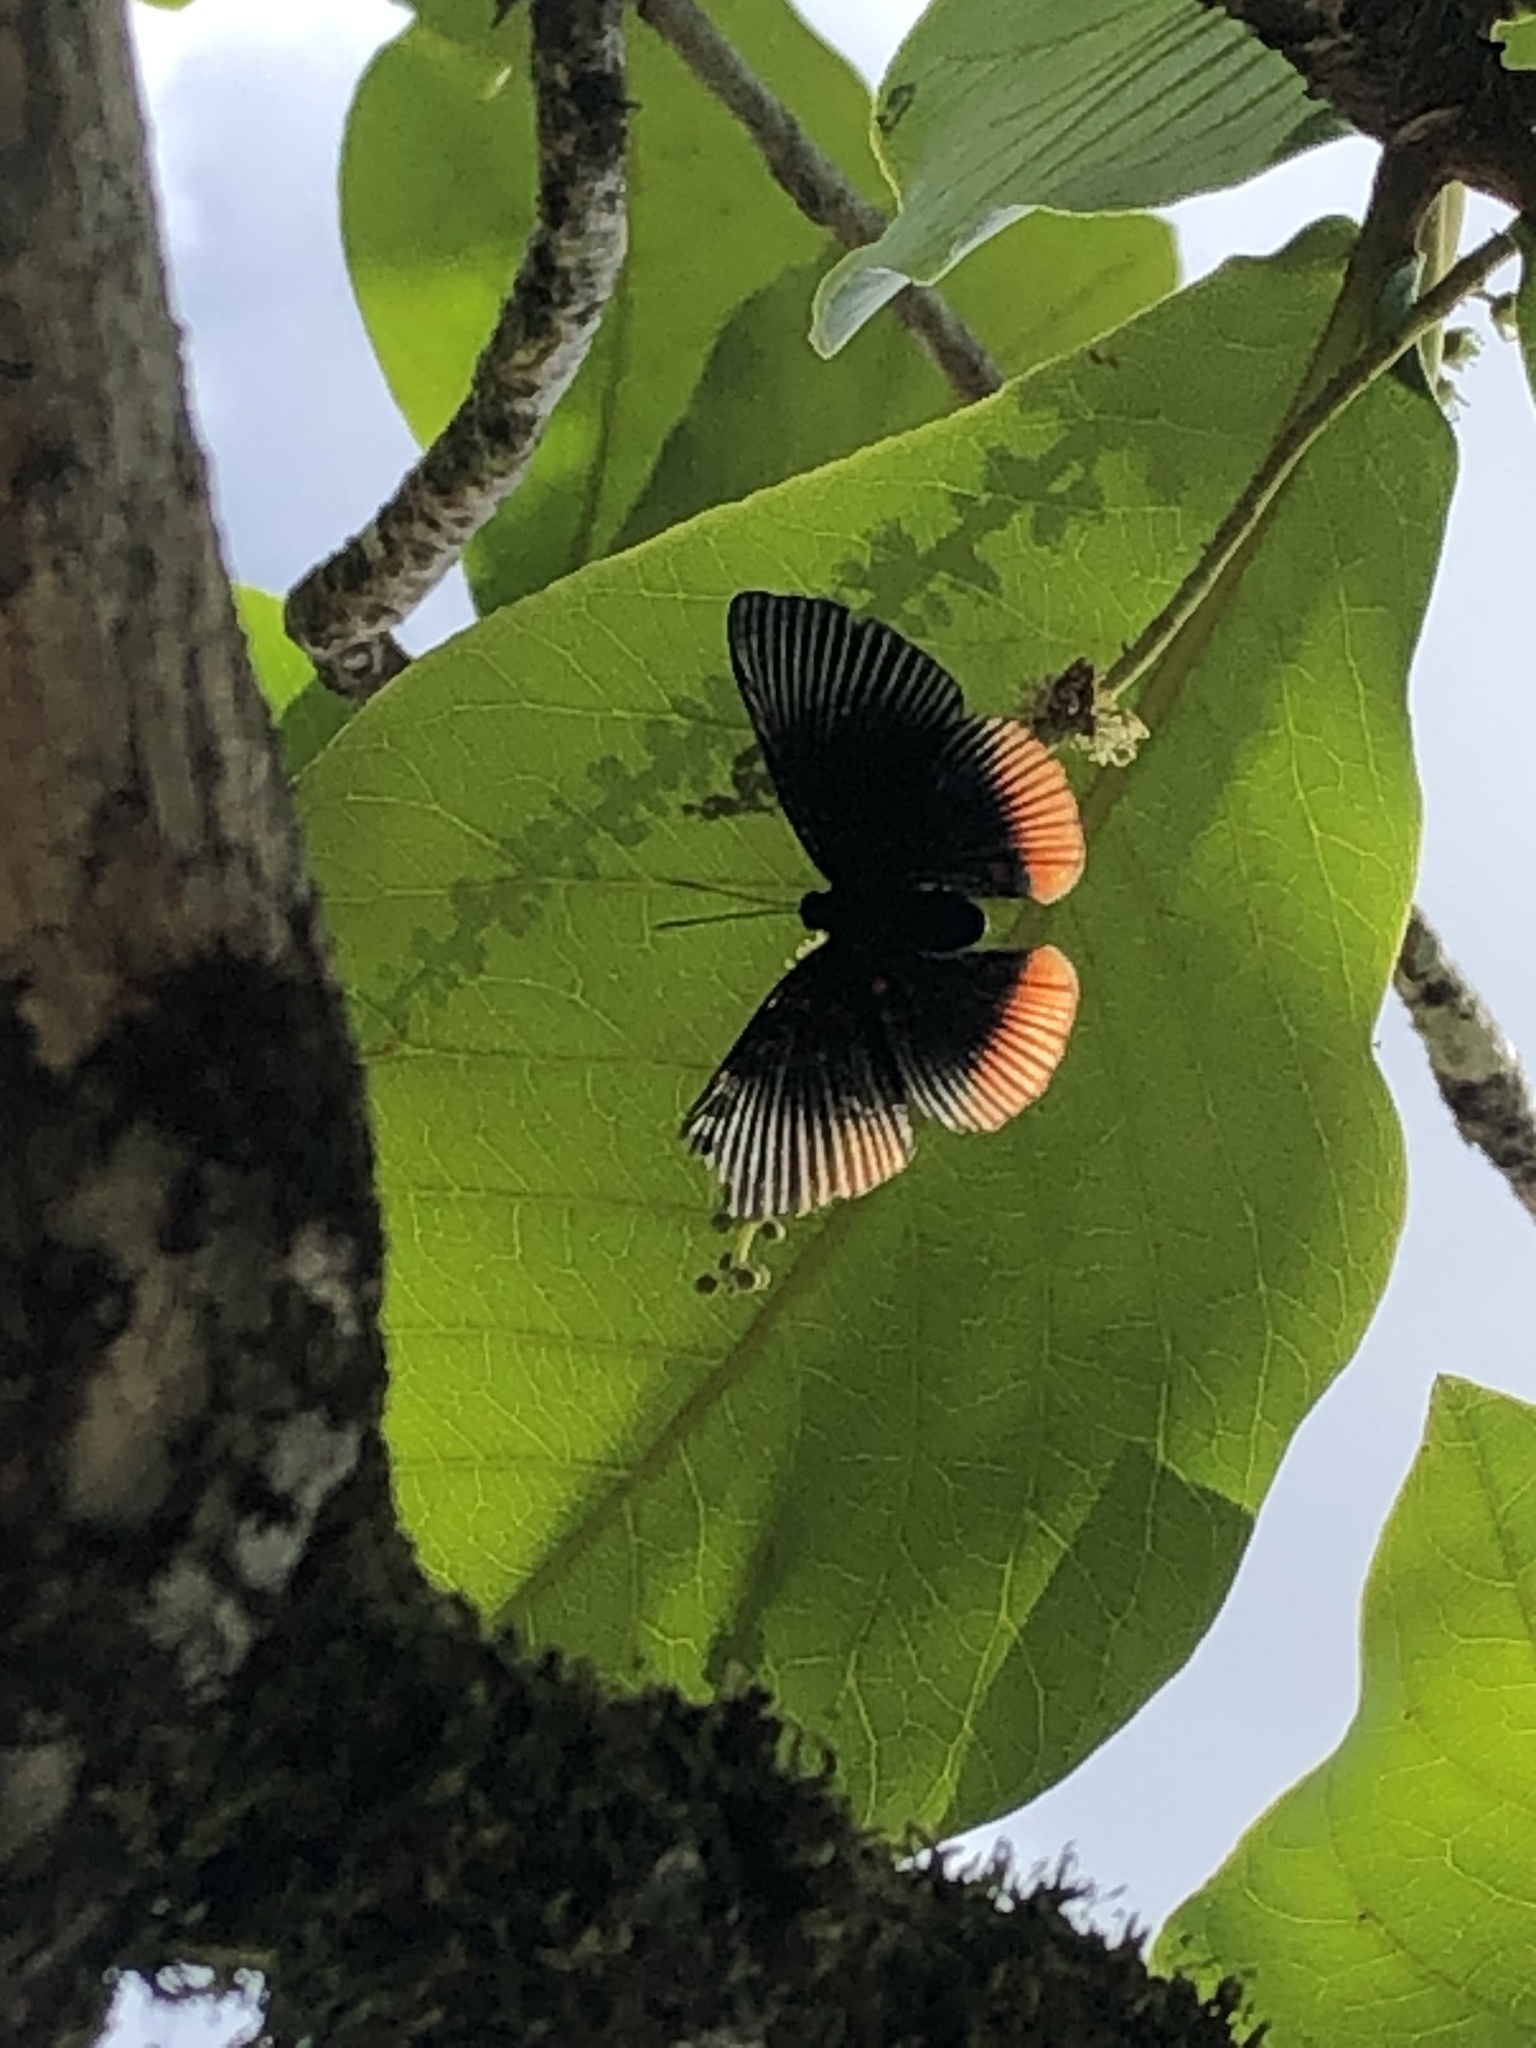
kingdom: Animalia
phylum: Arthropoda
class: Insecta
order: Lepidoptera
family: Riodinidae
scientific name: Riodinidae
